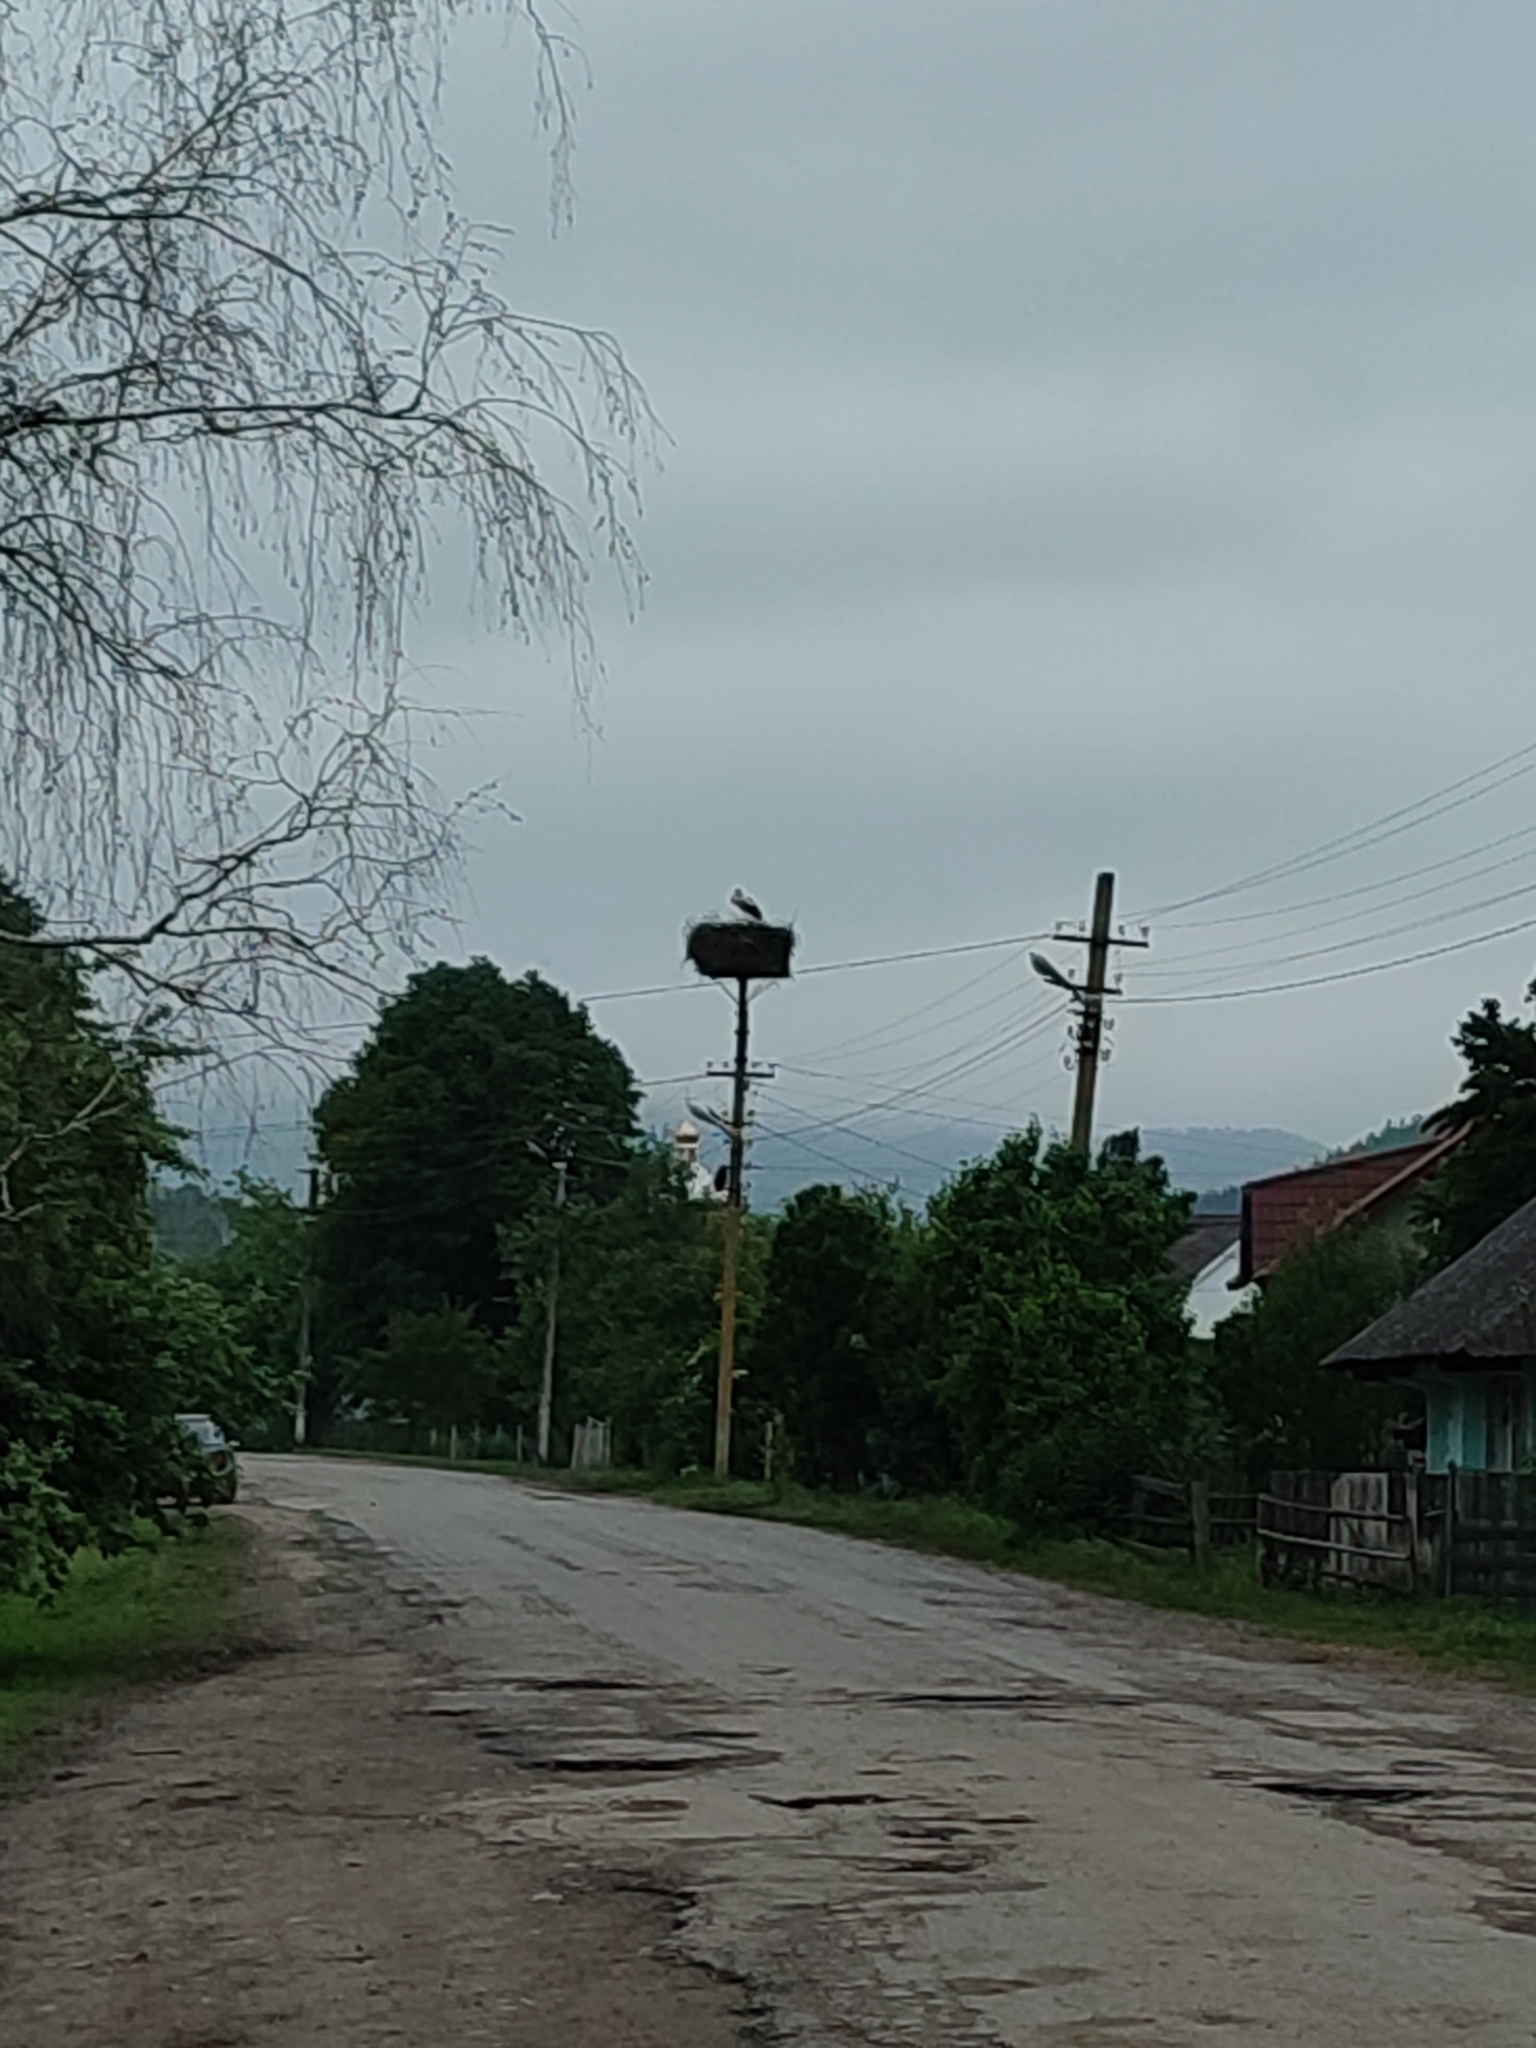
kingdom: Animalia
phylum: Chordata
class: Aves
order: Ciconiiformes
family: Ciconiidae
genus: Ciconia
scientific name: Ciconia ciconia
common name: White stork
